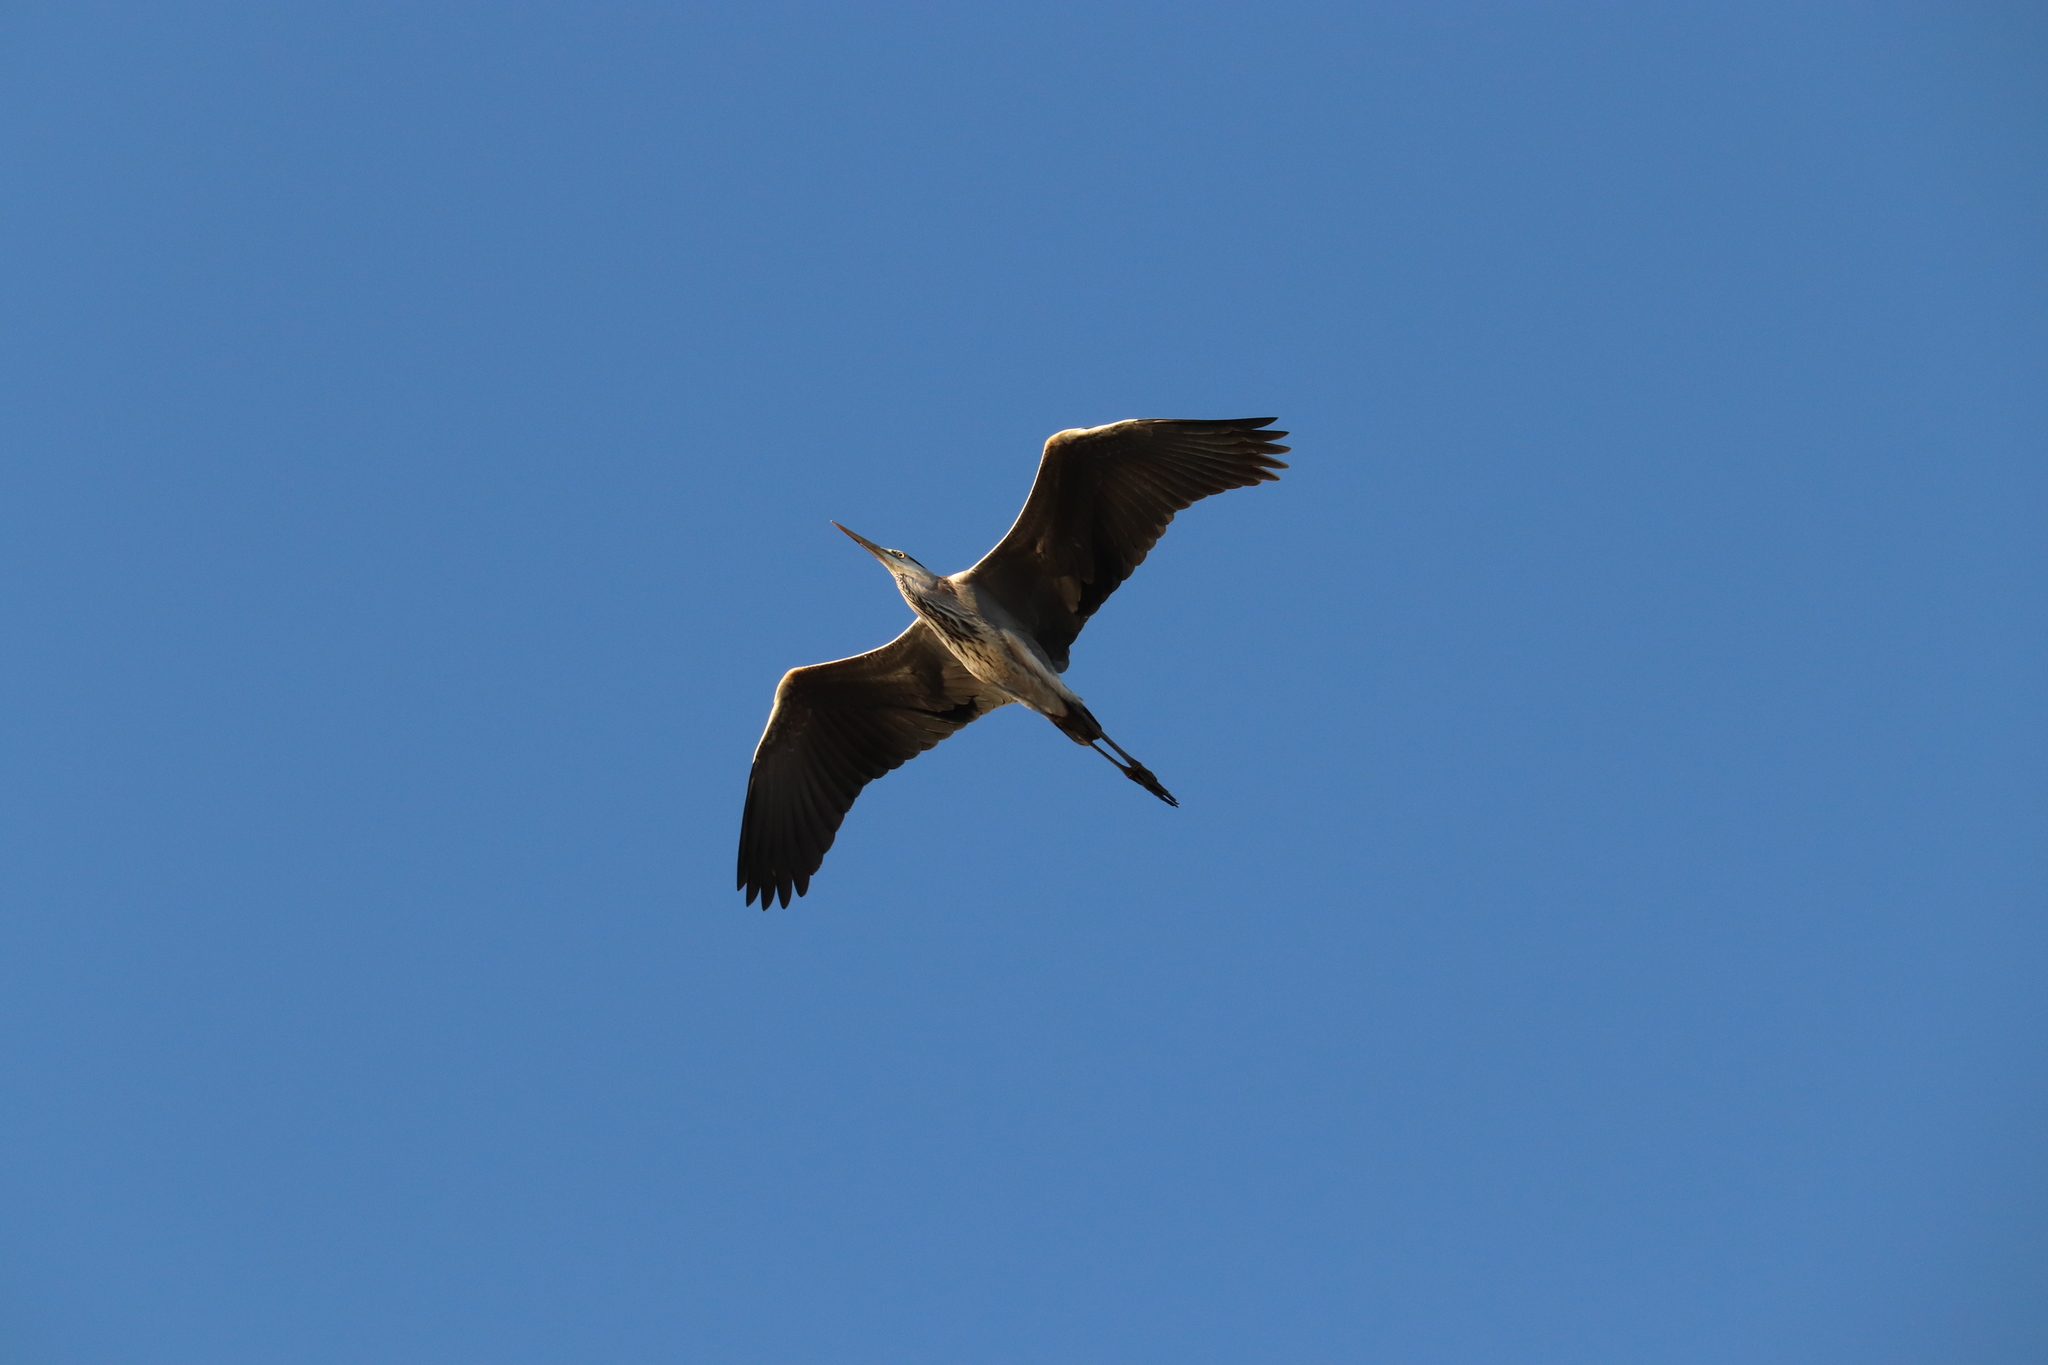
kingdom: Animalia
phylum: Chordata
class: Aves
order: Pelecaniformes
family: Ardeidae
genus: Ardea
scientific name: Ardea cinerea
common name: Grey heron
